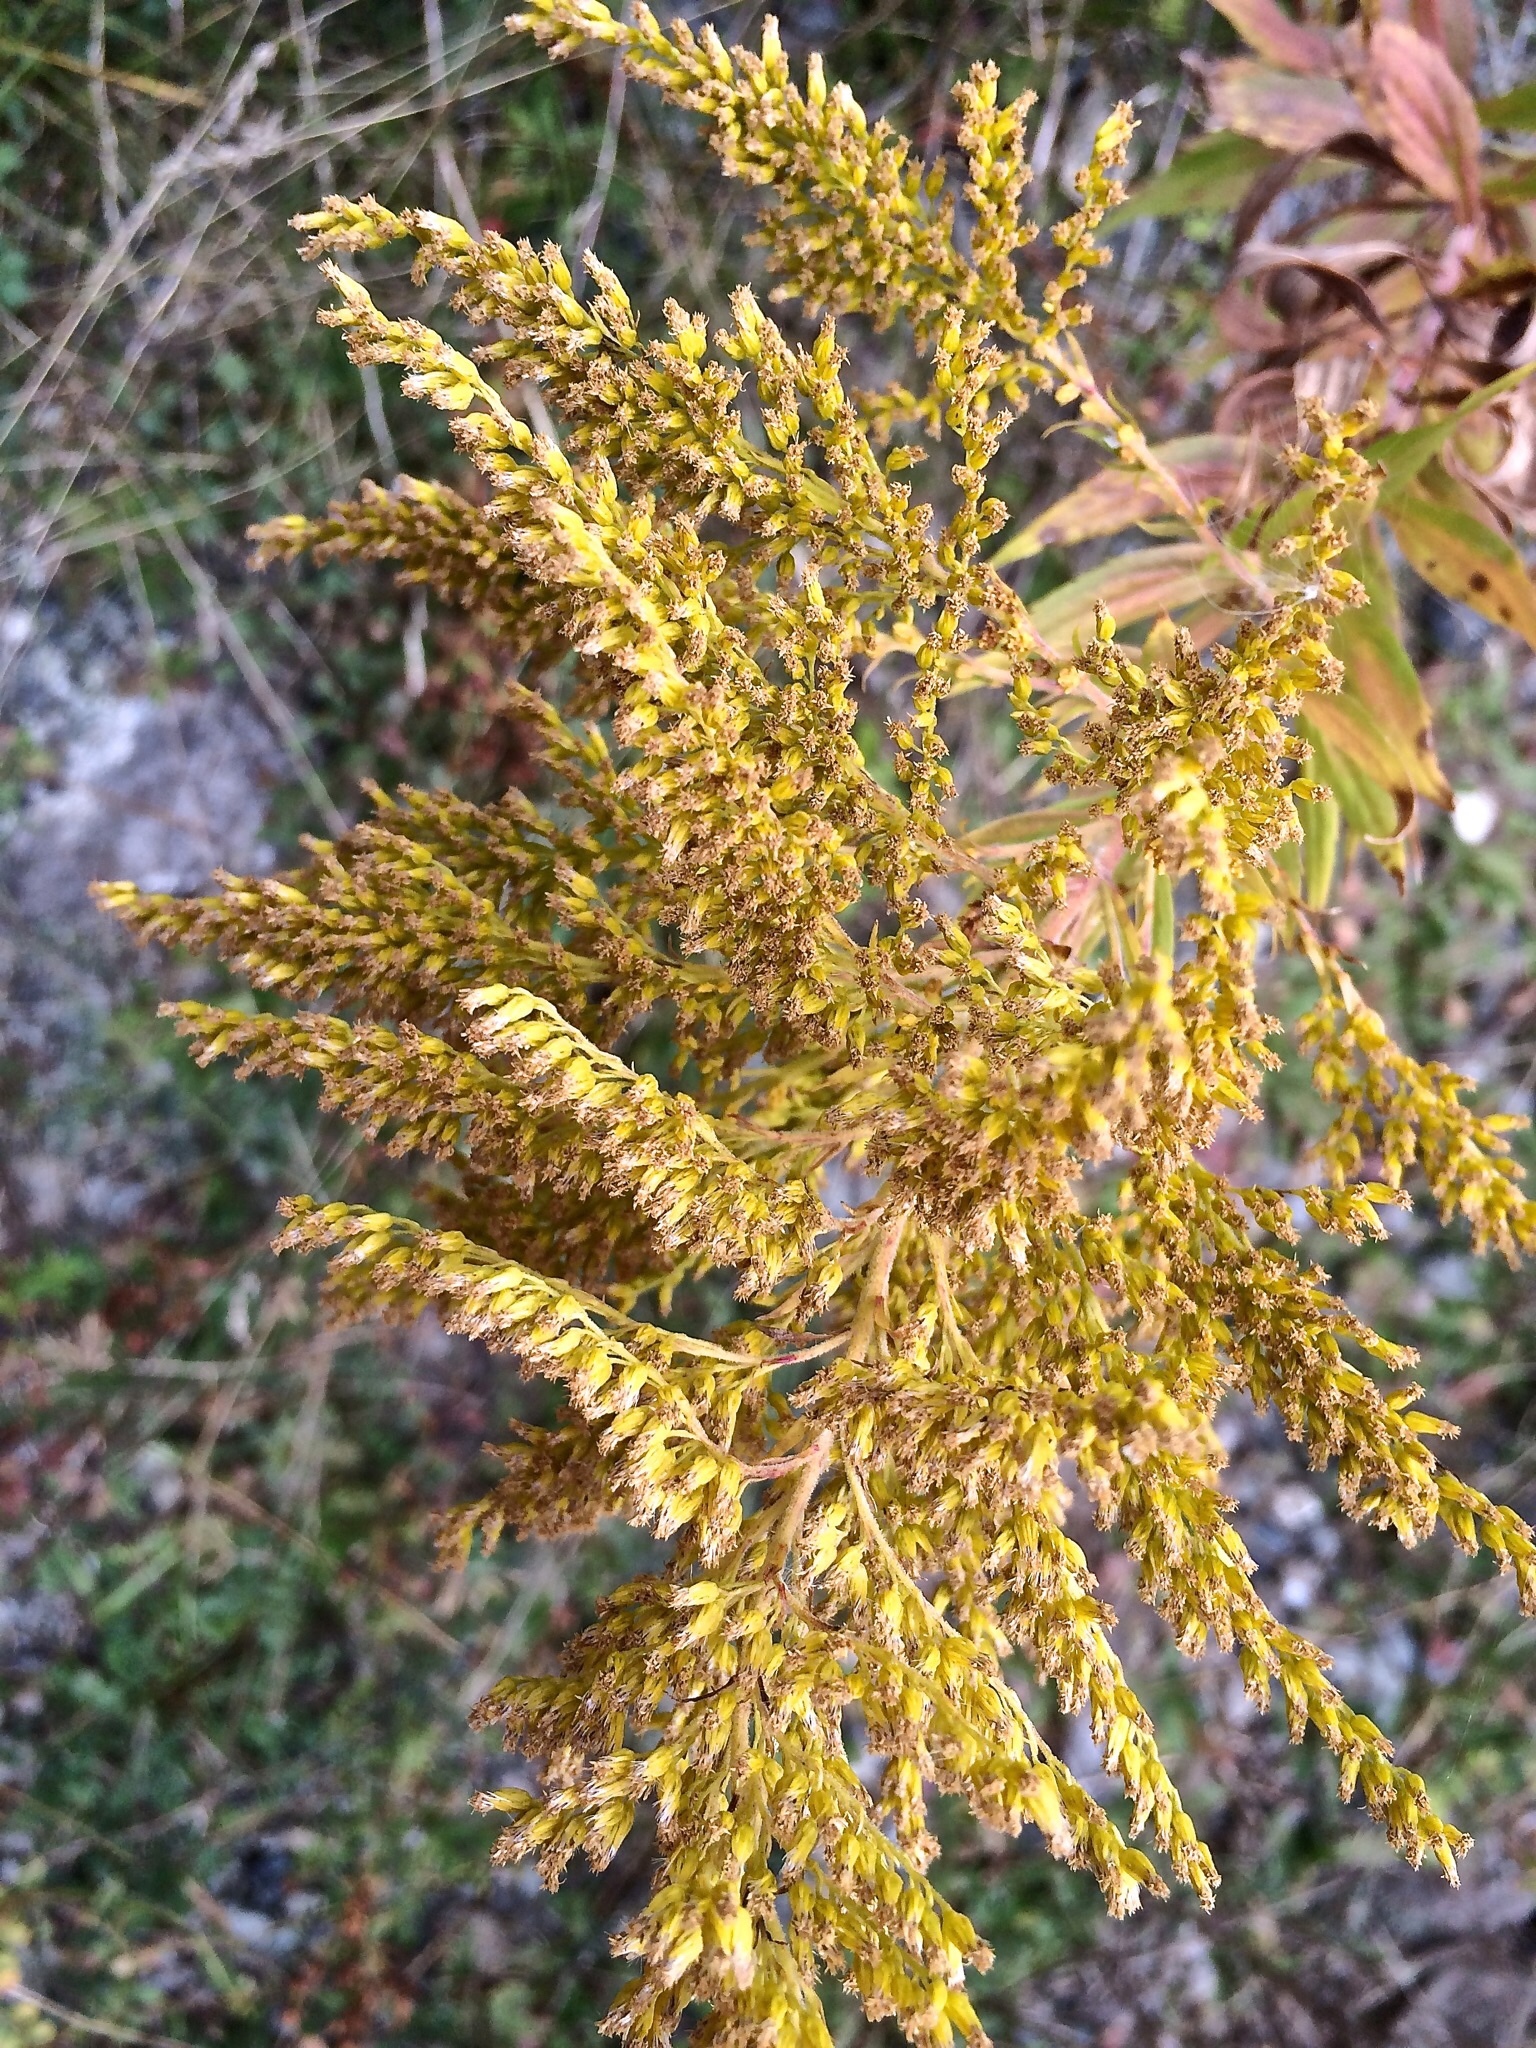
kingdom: Plantae
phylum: Tracheophyta
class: Magnoliopsida
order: Asterales
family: Asteraceae
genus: Solidago
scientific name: Solidago canadensis
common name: Canada goldenrod
